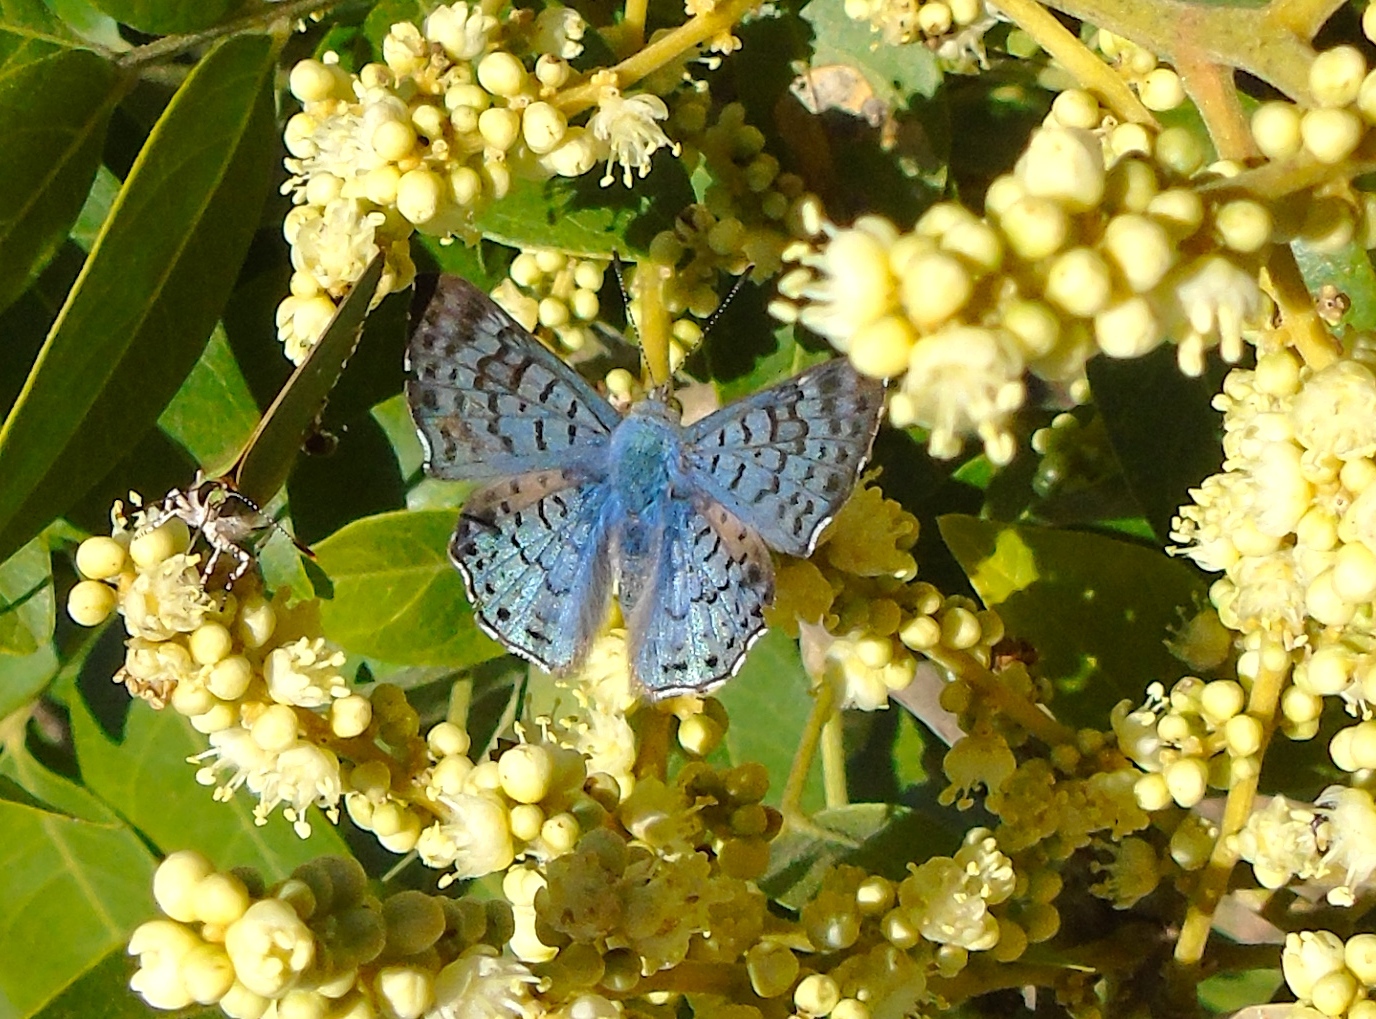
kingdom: Animalia
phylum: Arthropoda
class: Insecta
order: Lepidoptera
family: Riodinidae
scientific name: Riodinidae
